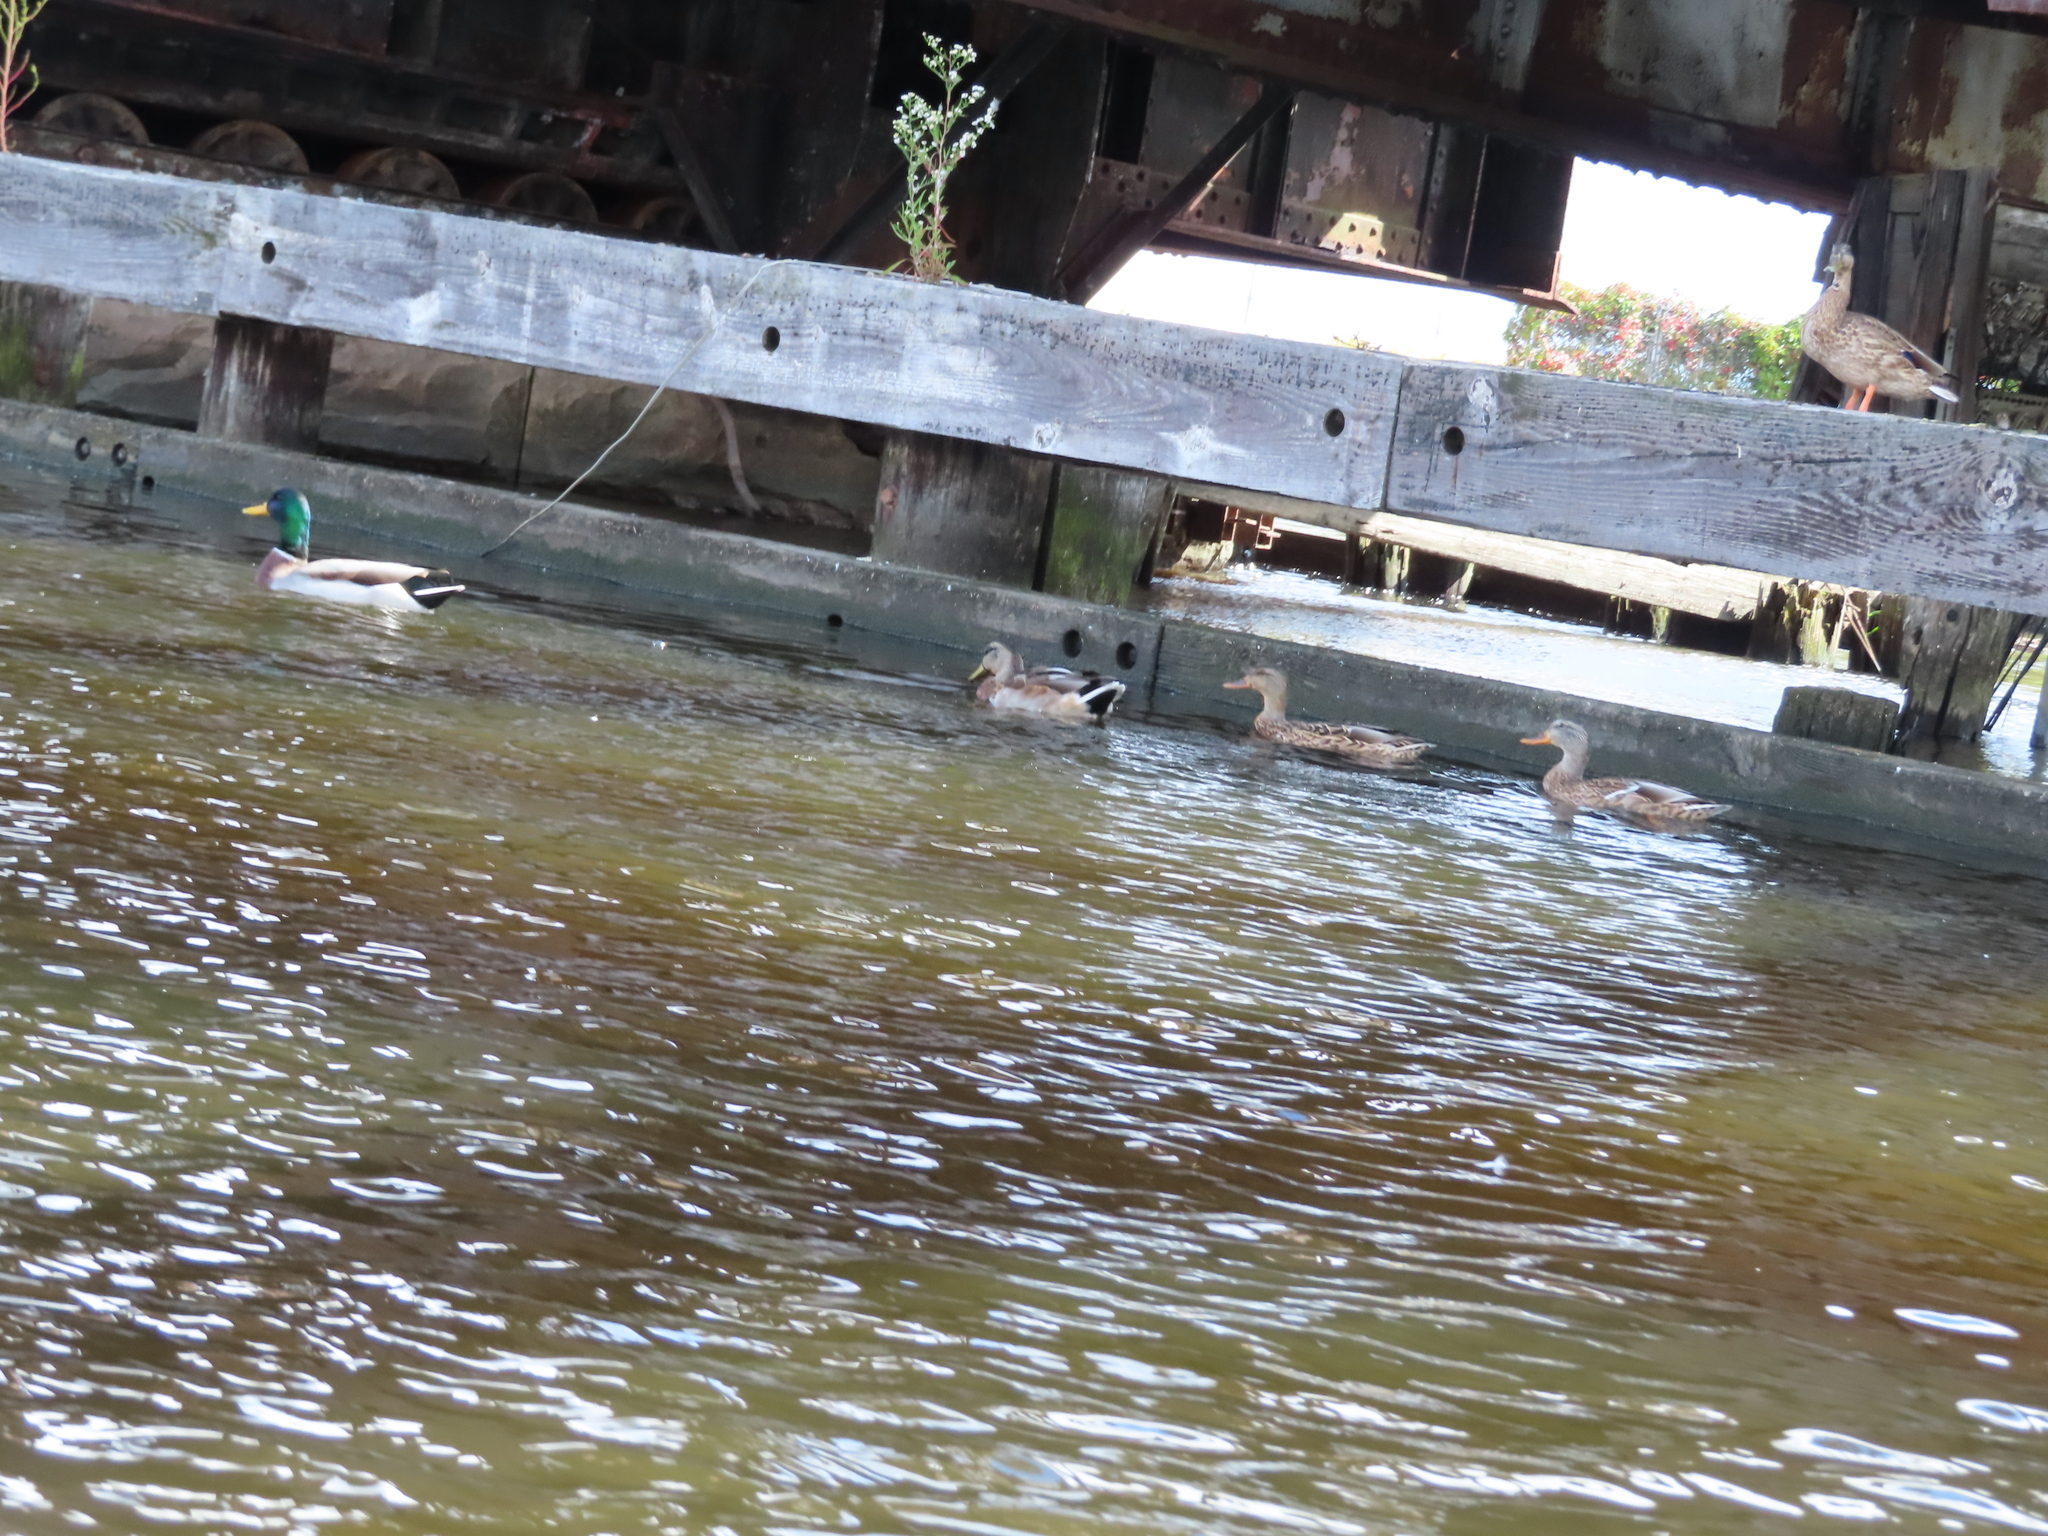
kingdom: Animalia
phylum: Chordata
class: Aves
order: Anseriformes
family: Anatidae
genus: Anas
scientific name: Anas platyrhynchos
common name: Mallard
